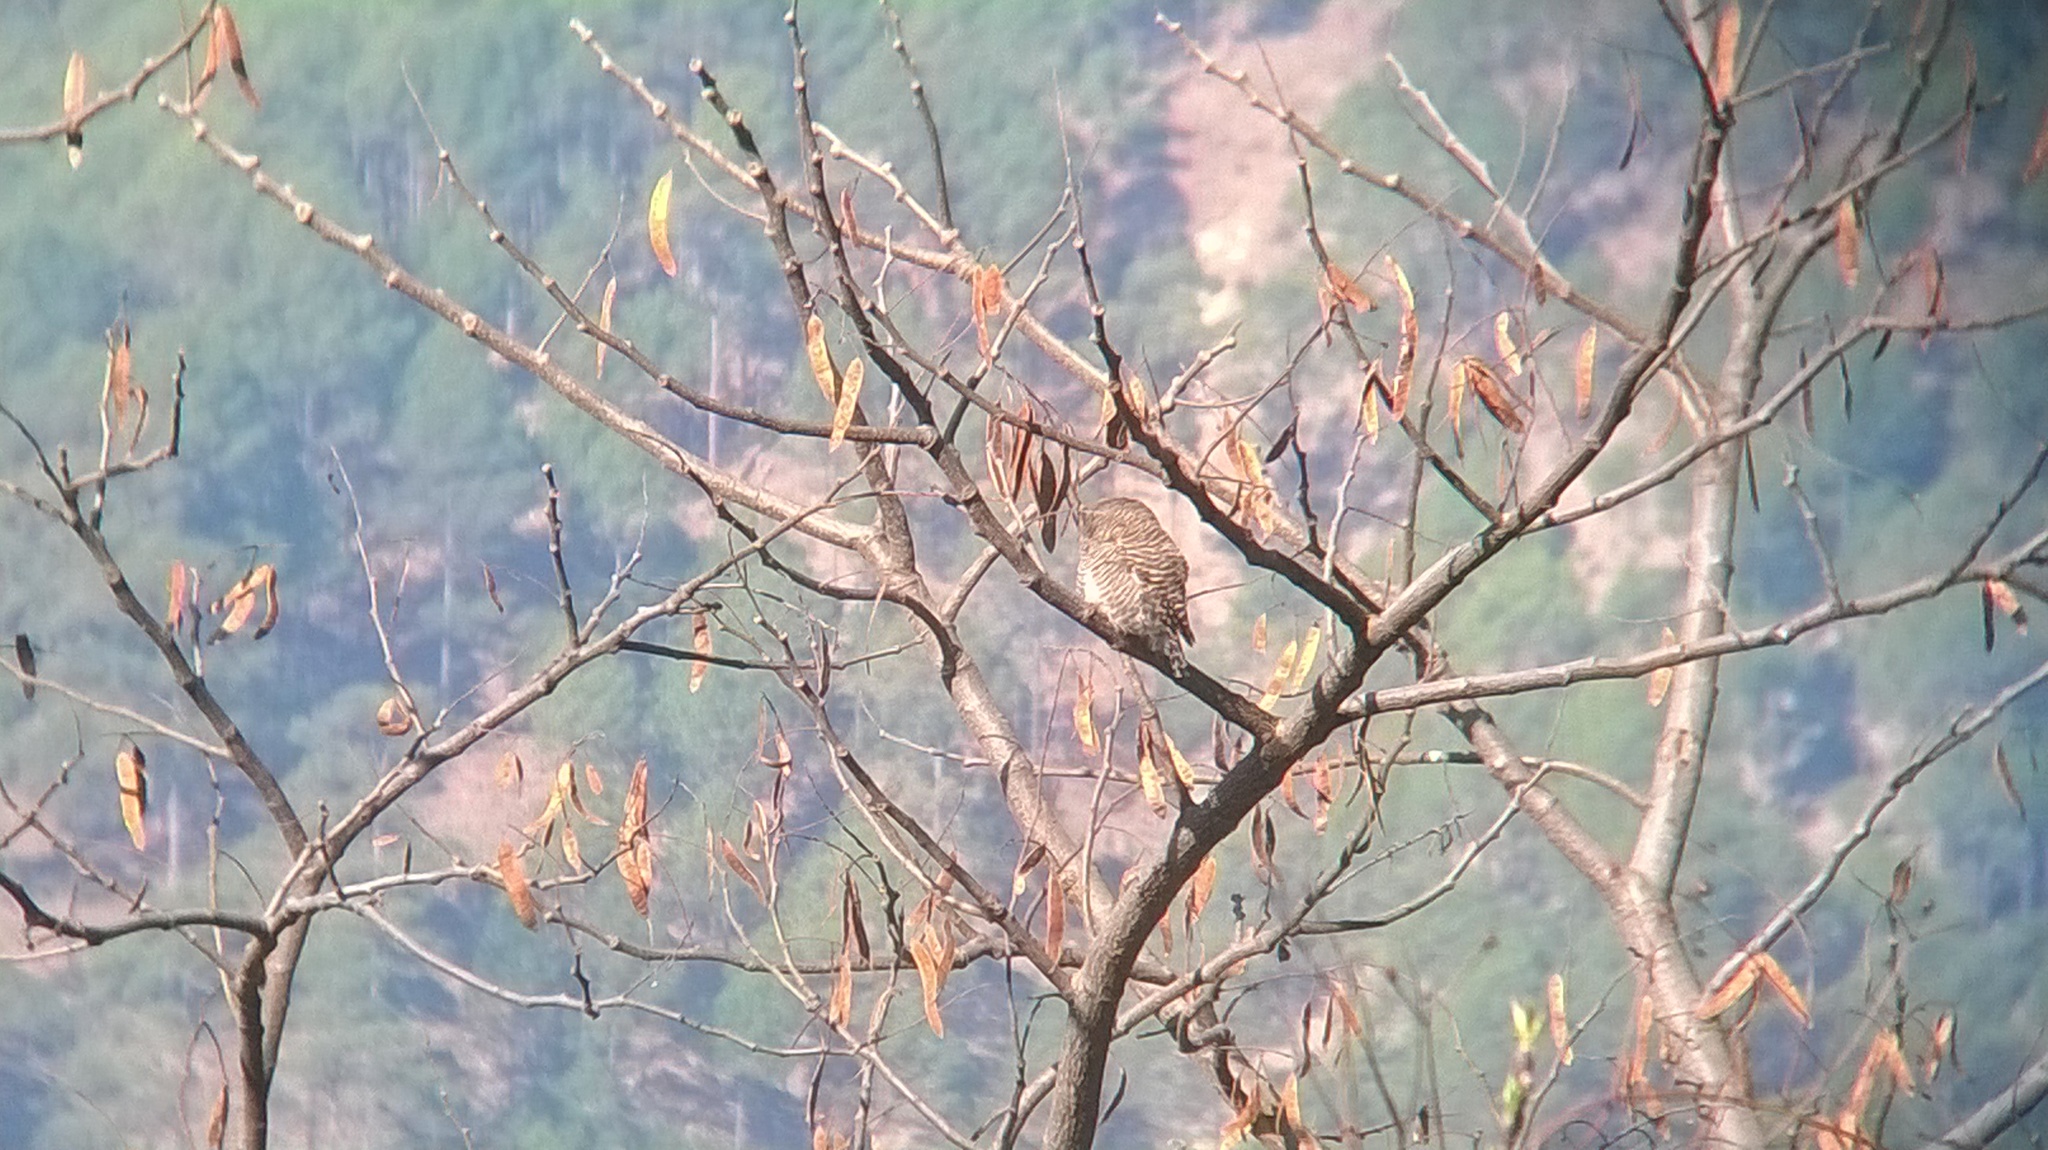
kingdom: Animalia
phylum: Chordata
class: Aves
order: Strigiformes
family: Strigidae
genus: Glaucidium
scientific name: Glaucidium cuculoides
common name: Asian barred owlet
